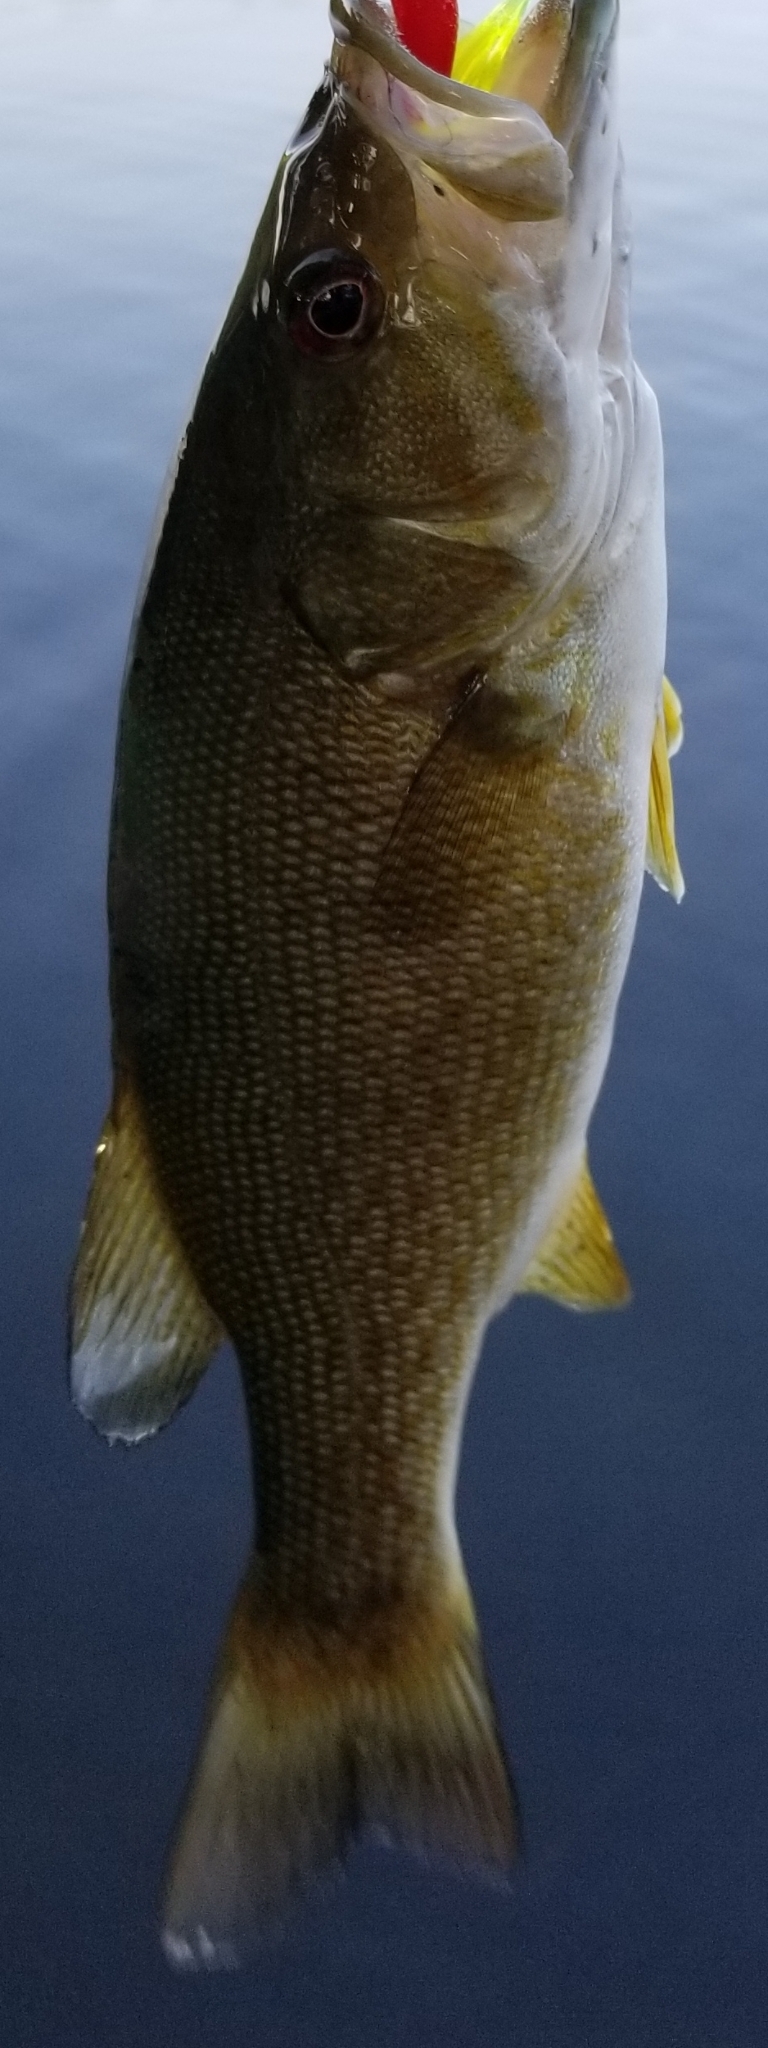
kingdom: Animalia
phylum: Chordata
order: Perciformes
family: Centrarchidae
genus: Micropterus
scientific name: Micropterus dolomieu
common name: Smallmouth bass
